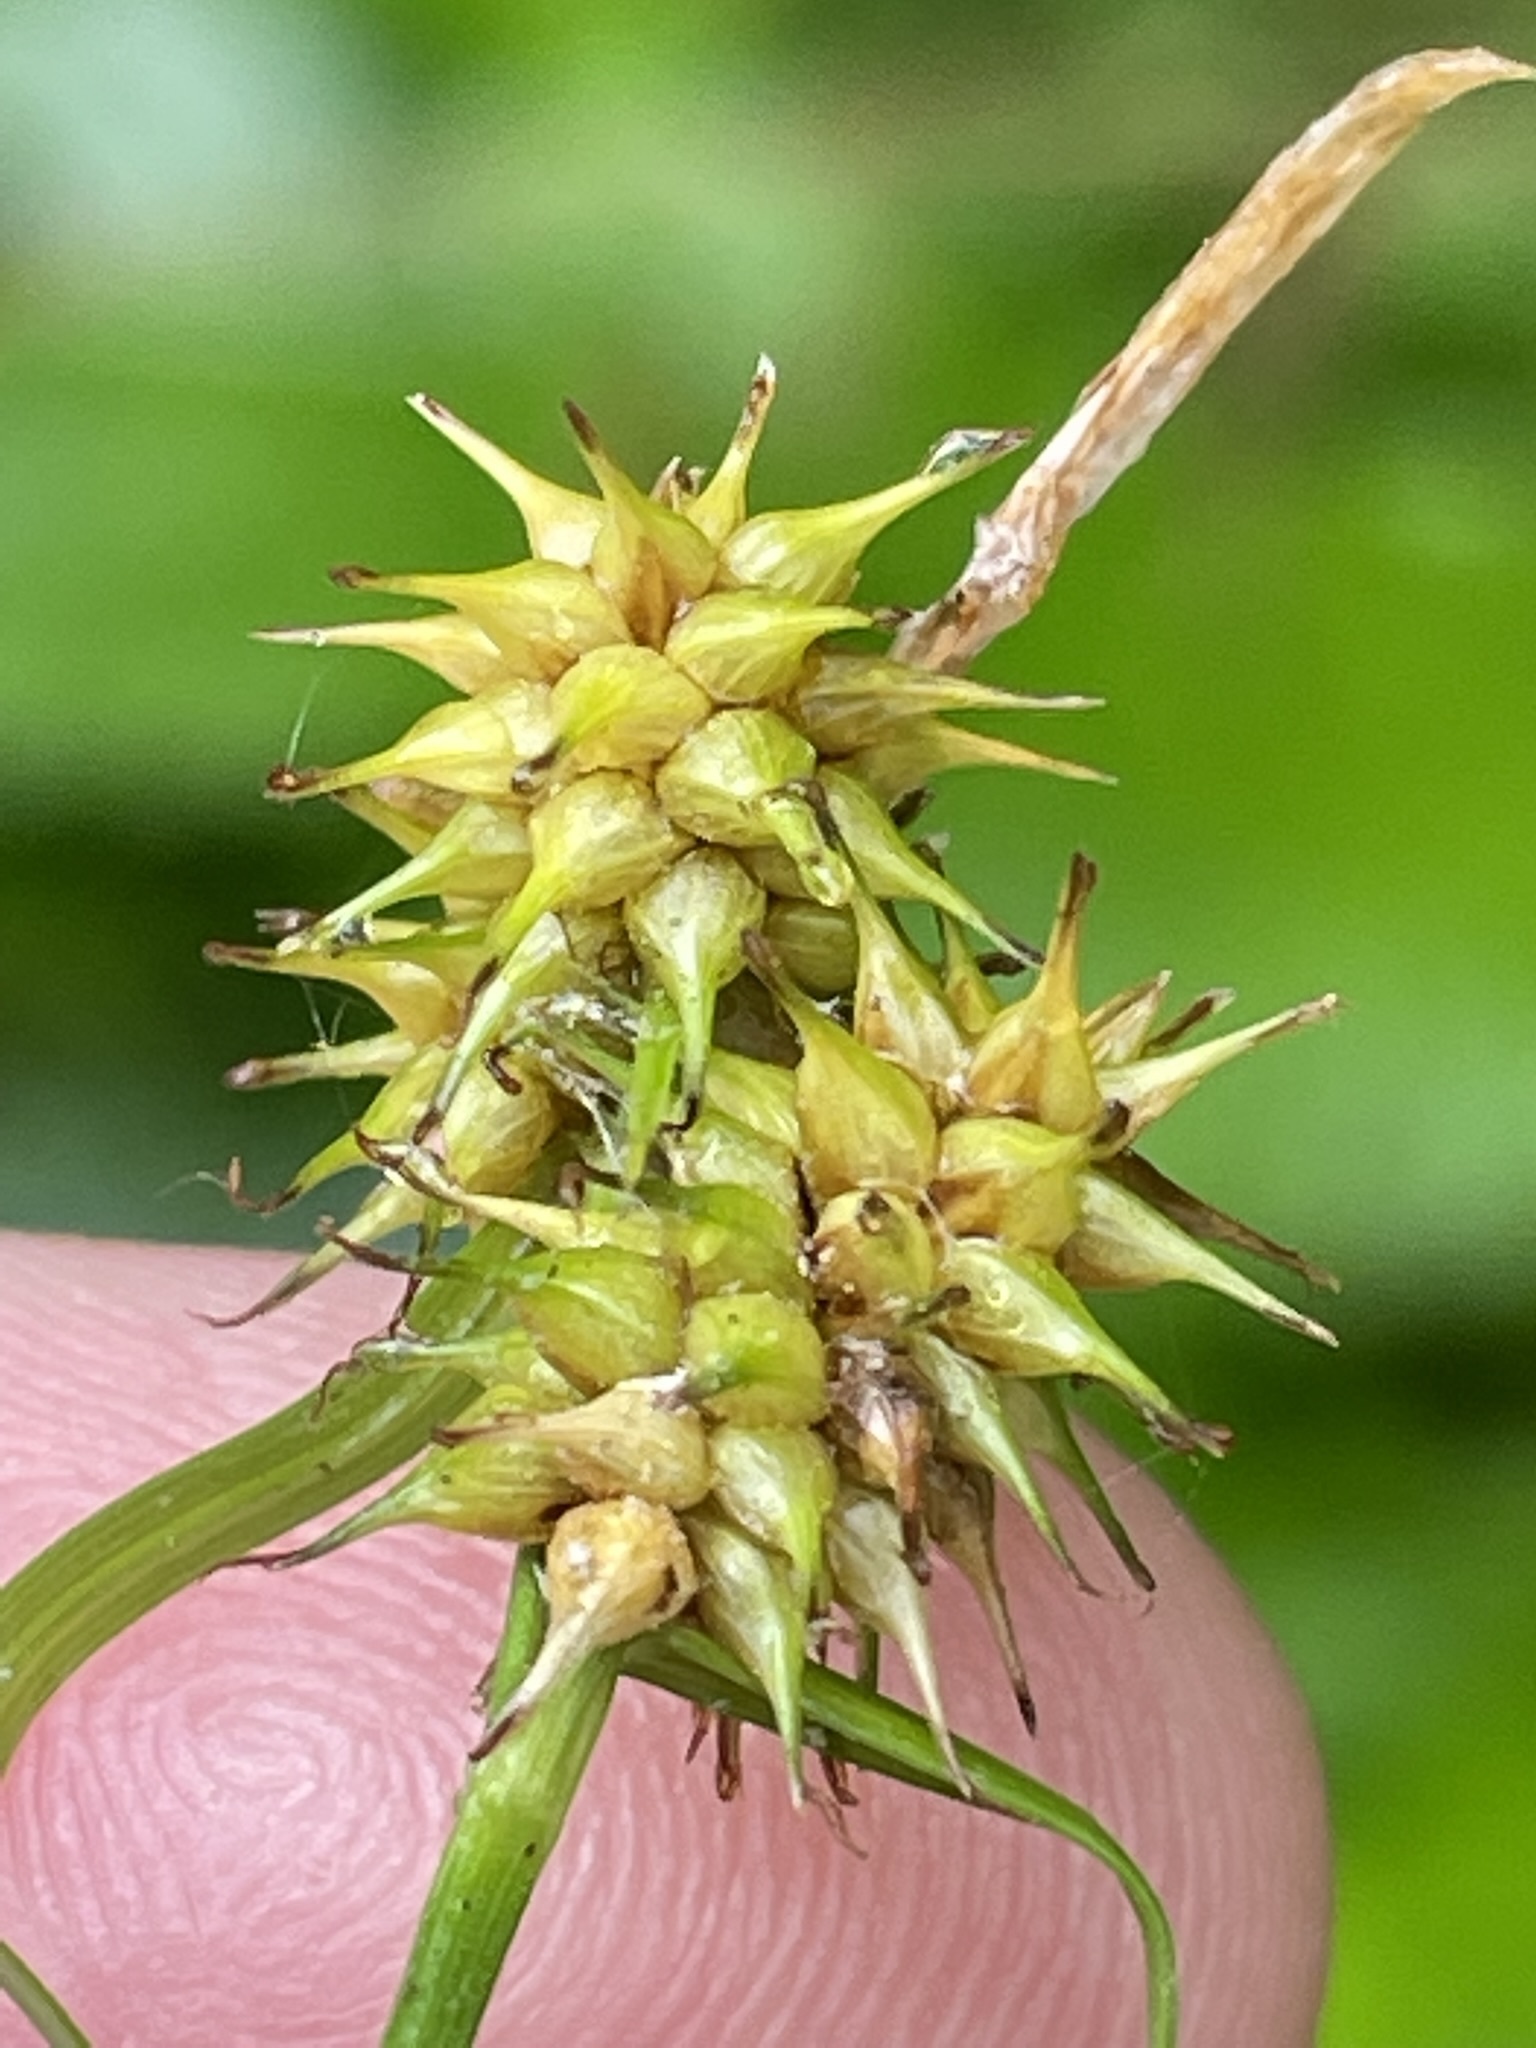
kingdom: Plantae
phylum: Tracheophyta
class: Liliopsida
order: Poales
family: Cyperaceae
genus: Carex
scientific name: Carex flava
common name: Large yellow-sedge
